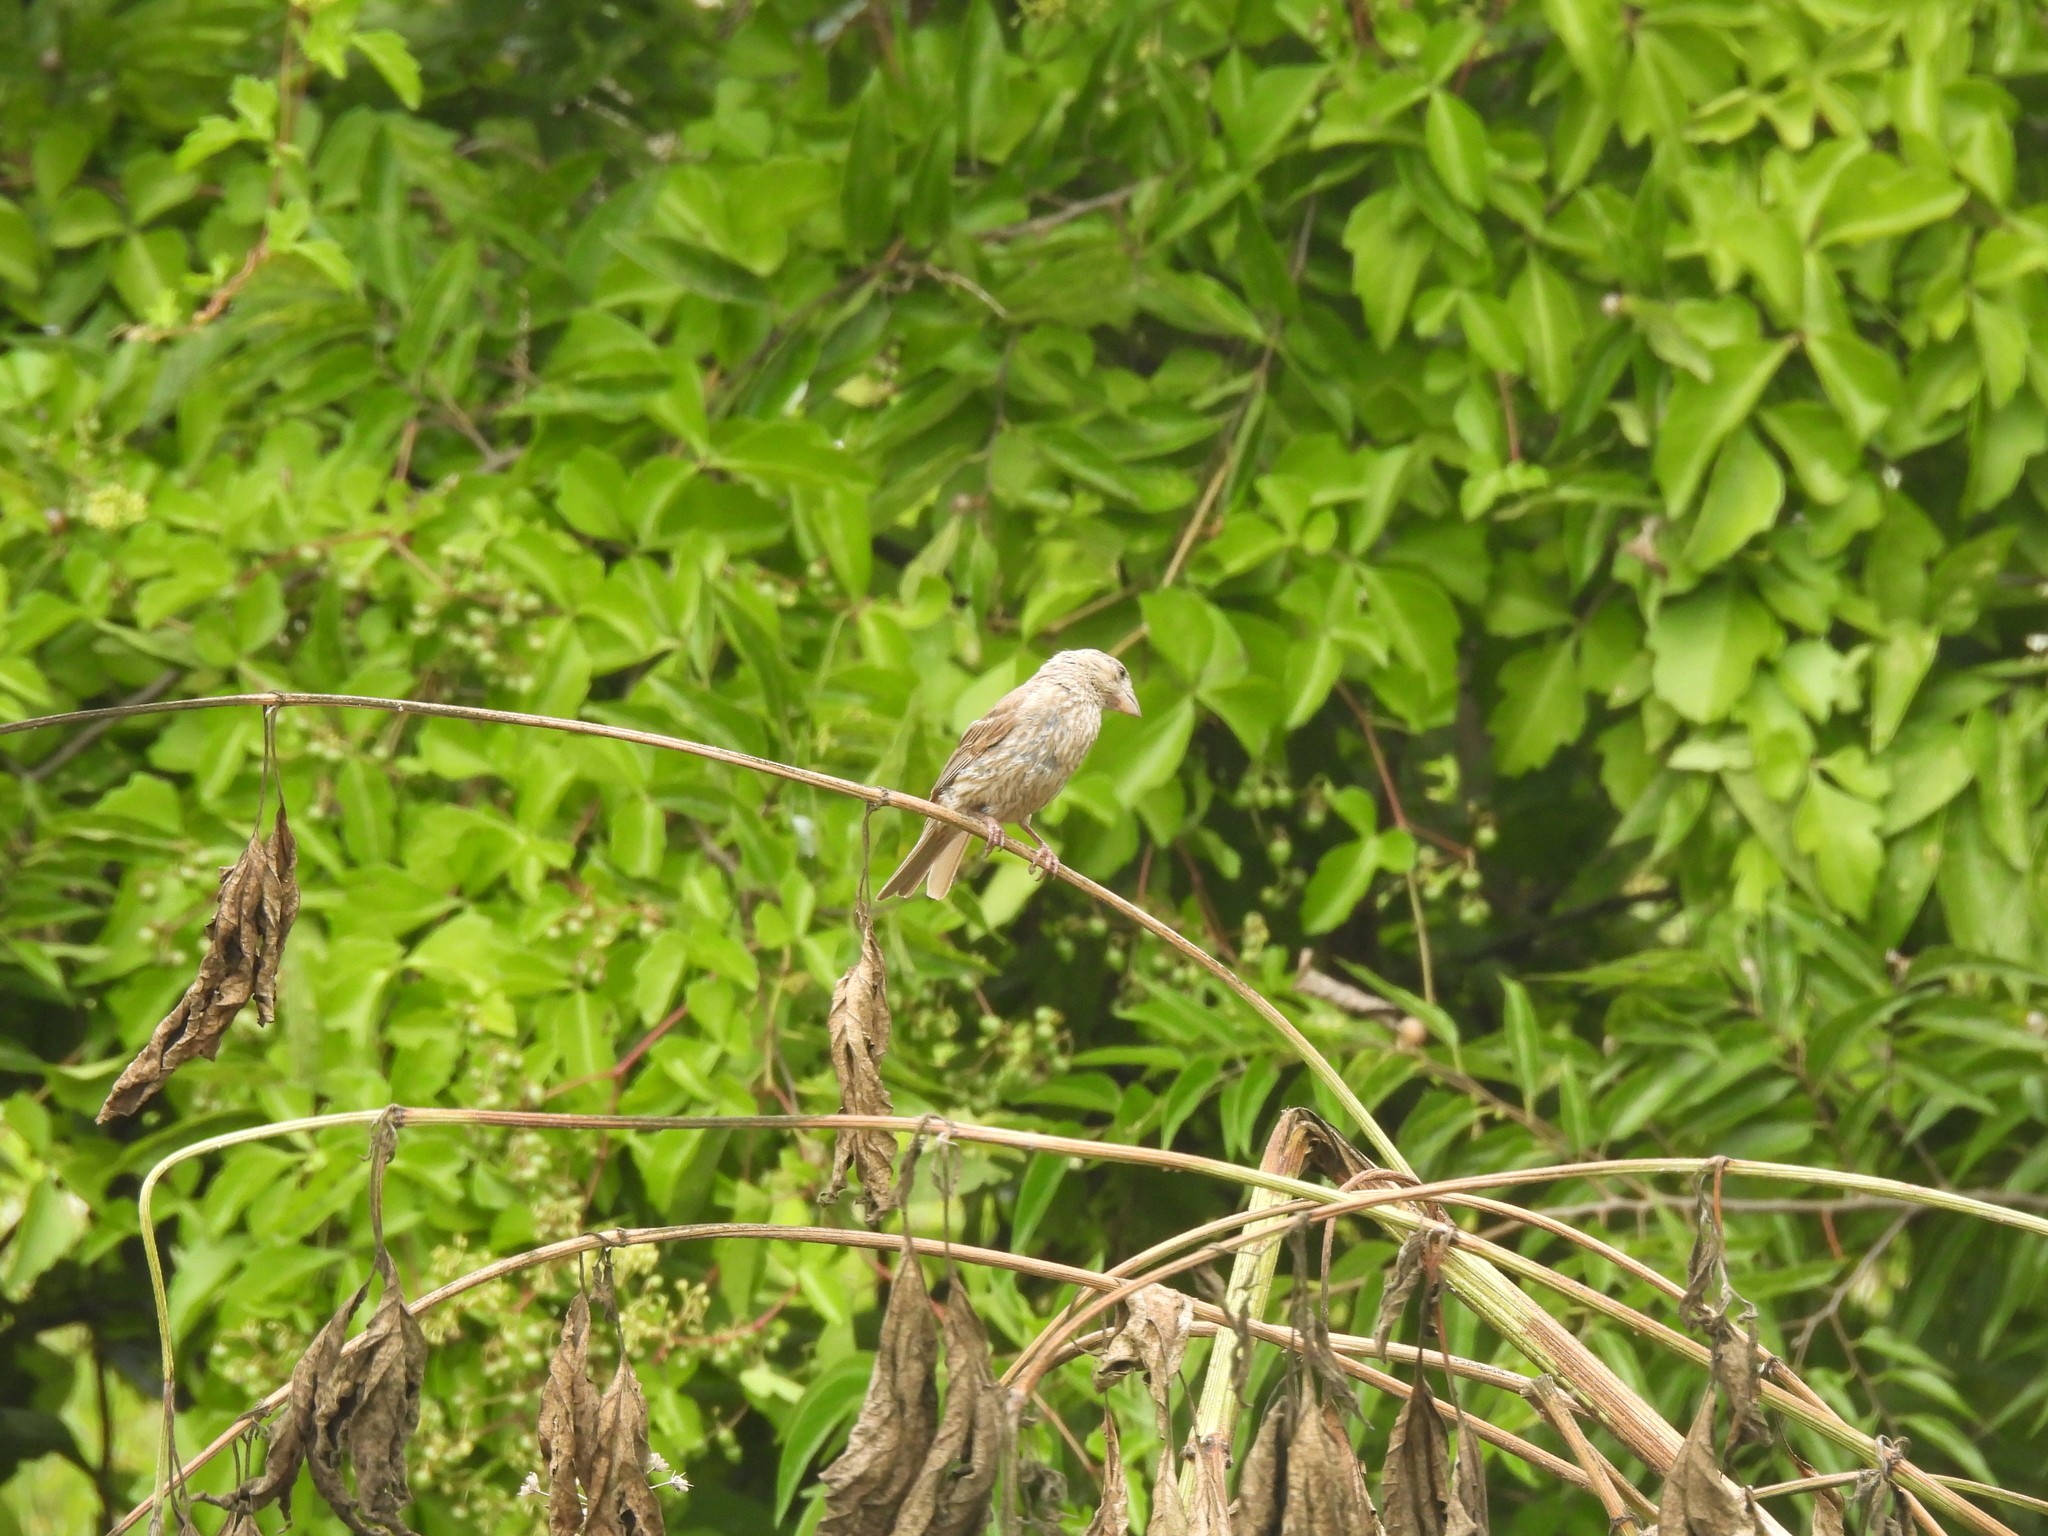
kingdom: Animalia
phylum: Chordata
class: Aves
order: Passeriformes
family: Fringillidae
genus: Haemorhous
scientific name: Haemorhous mexicanus
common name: House finch
